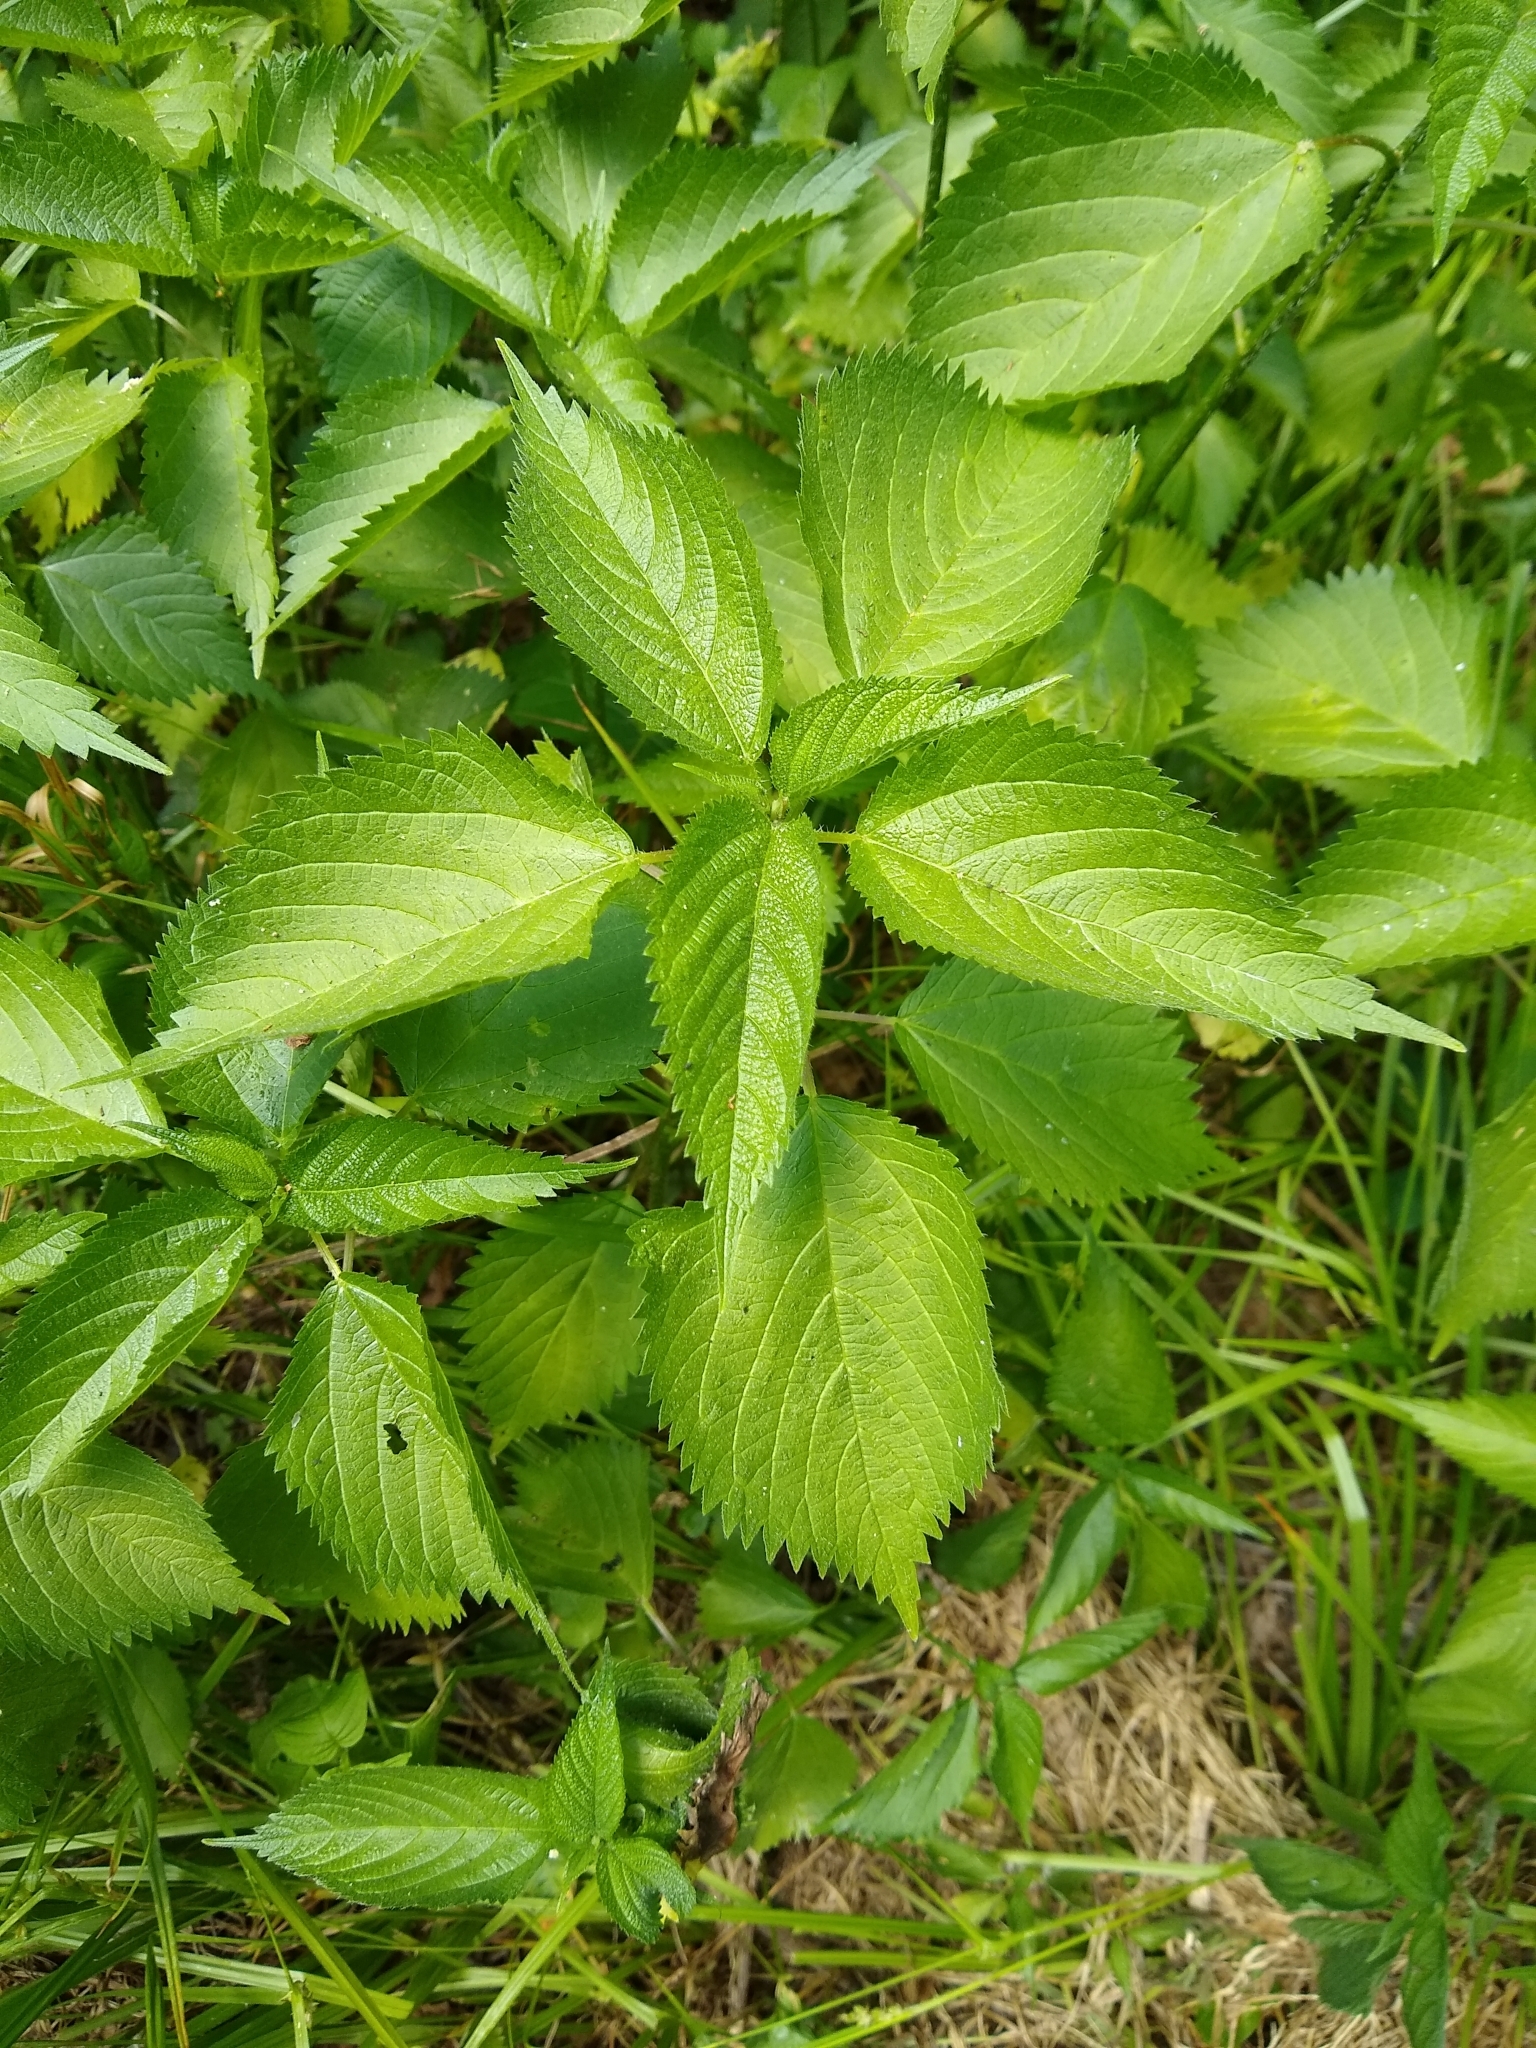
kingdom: Plantae
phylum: Tracheophyta
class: Magnoliopsida
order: Rosales
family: Urticaceae
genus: Urtica
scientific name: Urtica dioica
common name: Common nettle
